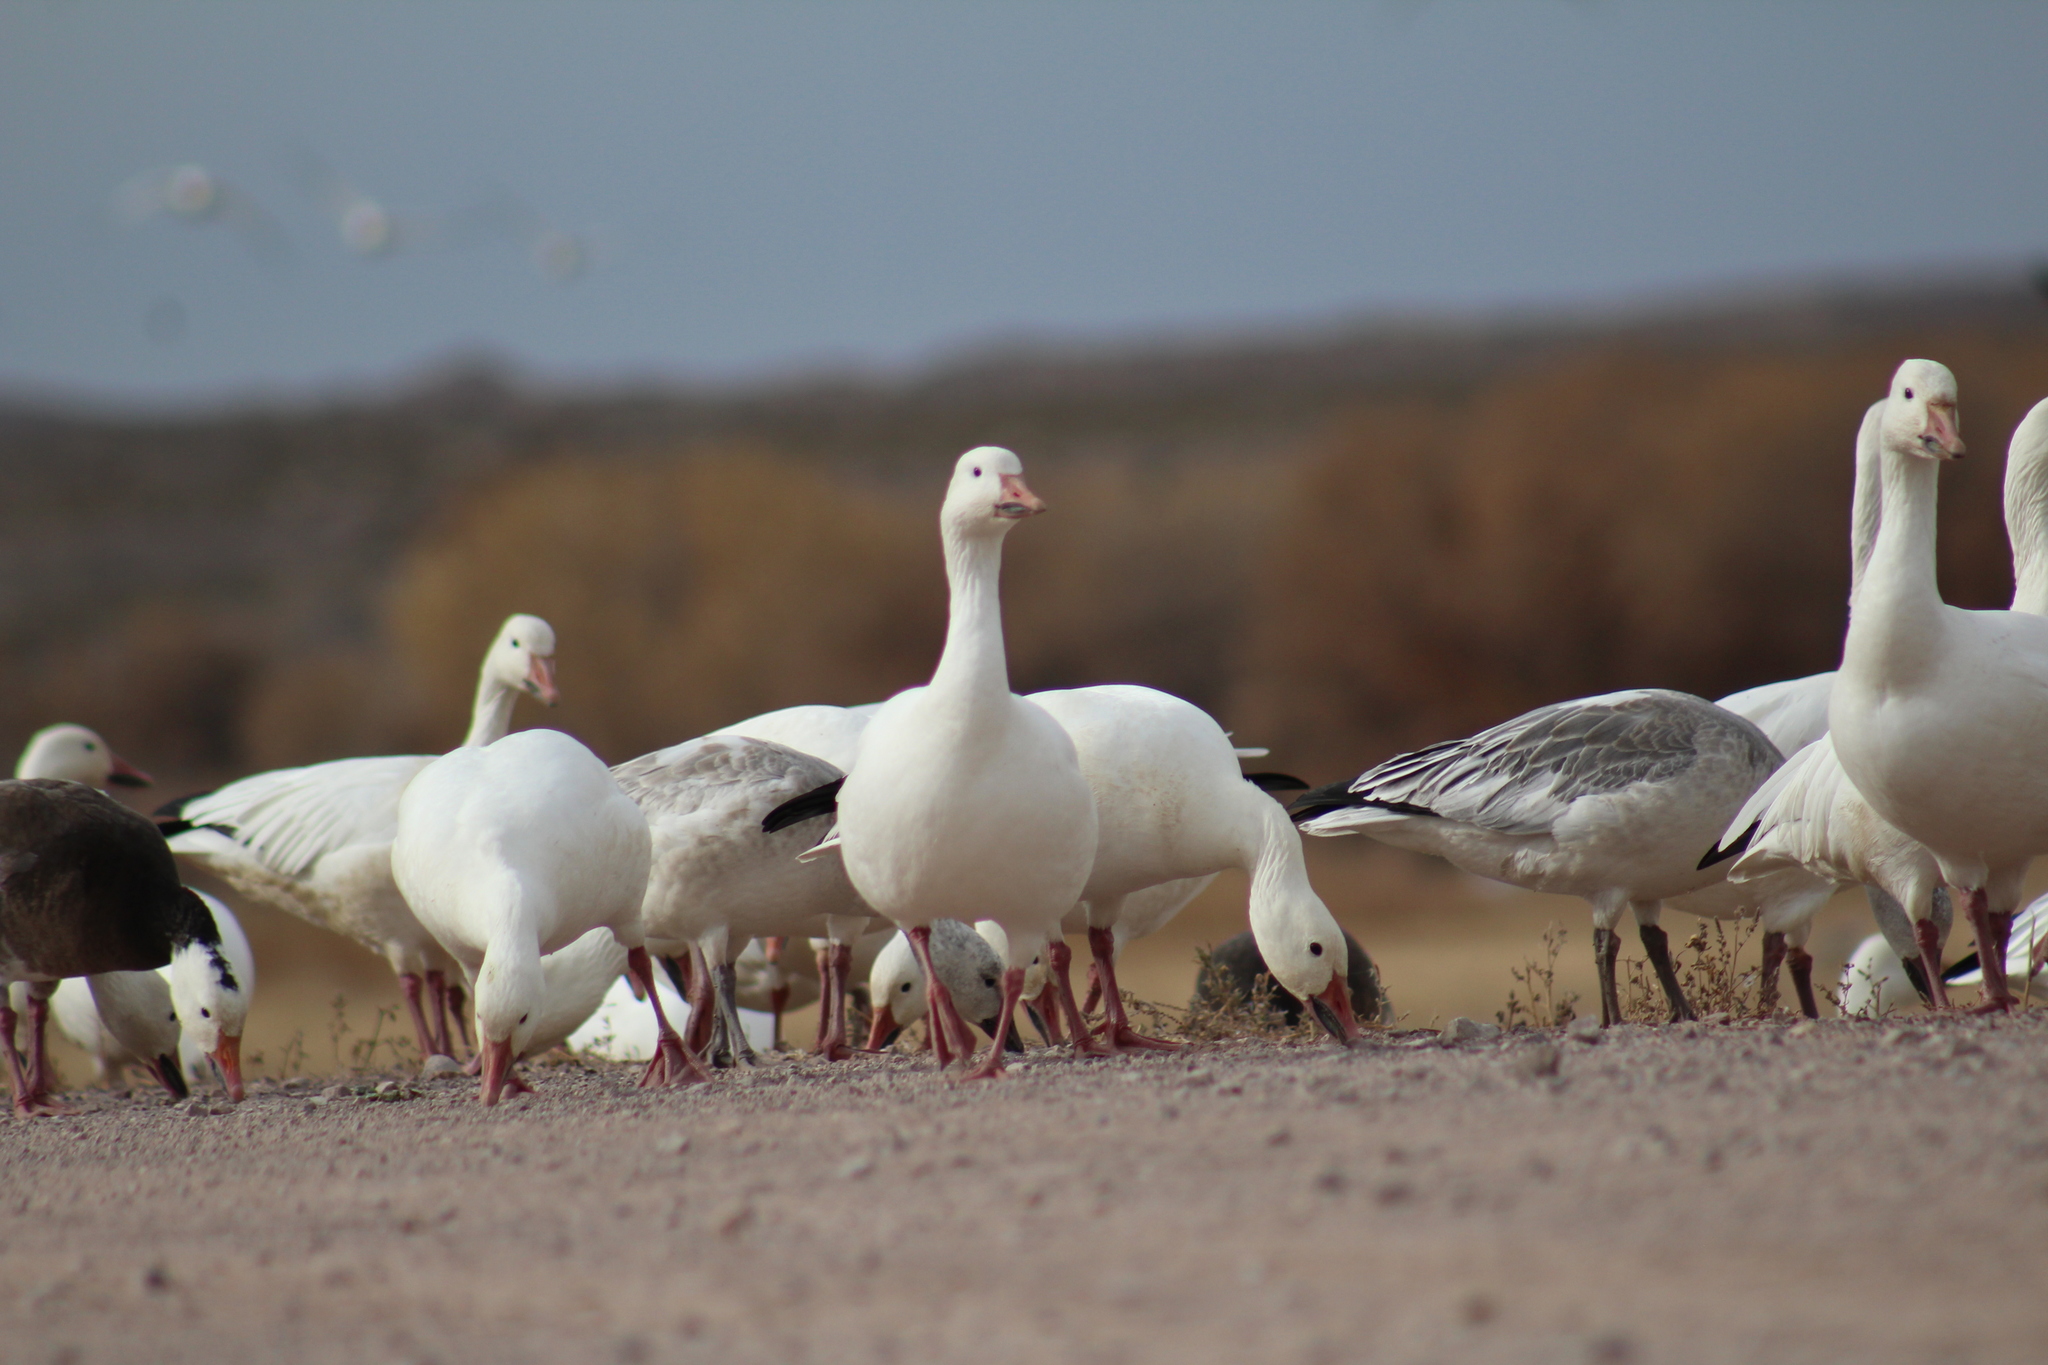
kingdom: Animalia
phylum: Chordata
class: Aves
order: Anseriformes
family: Anatidae
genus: Anser
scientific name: Anser caerulescens
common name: Snow goose
